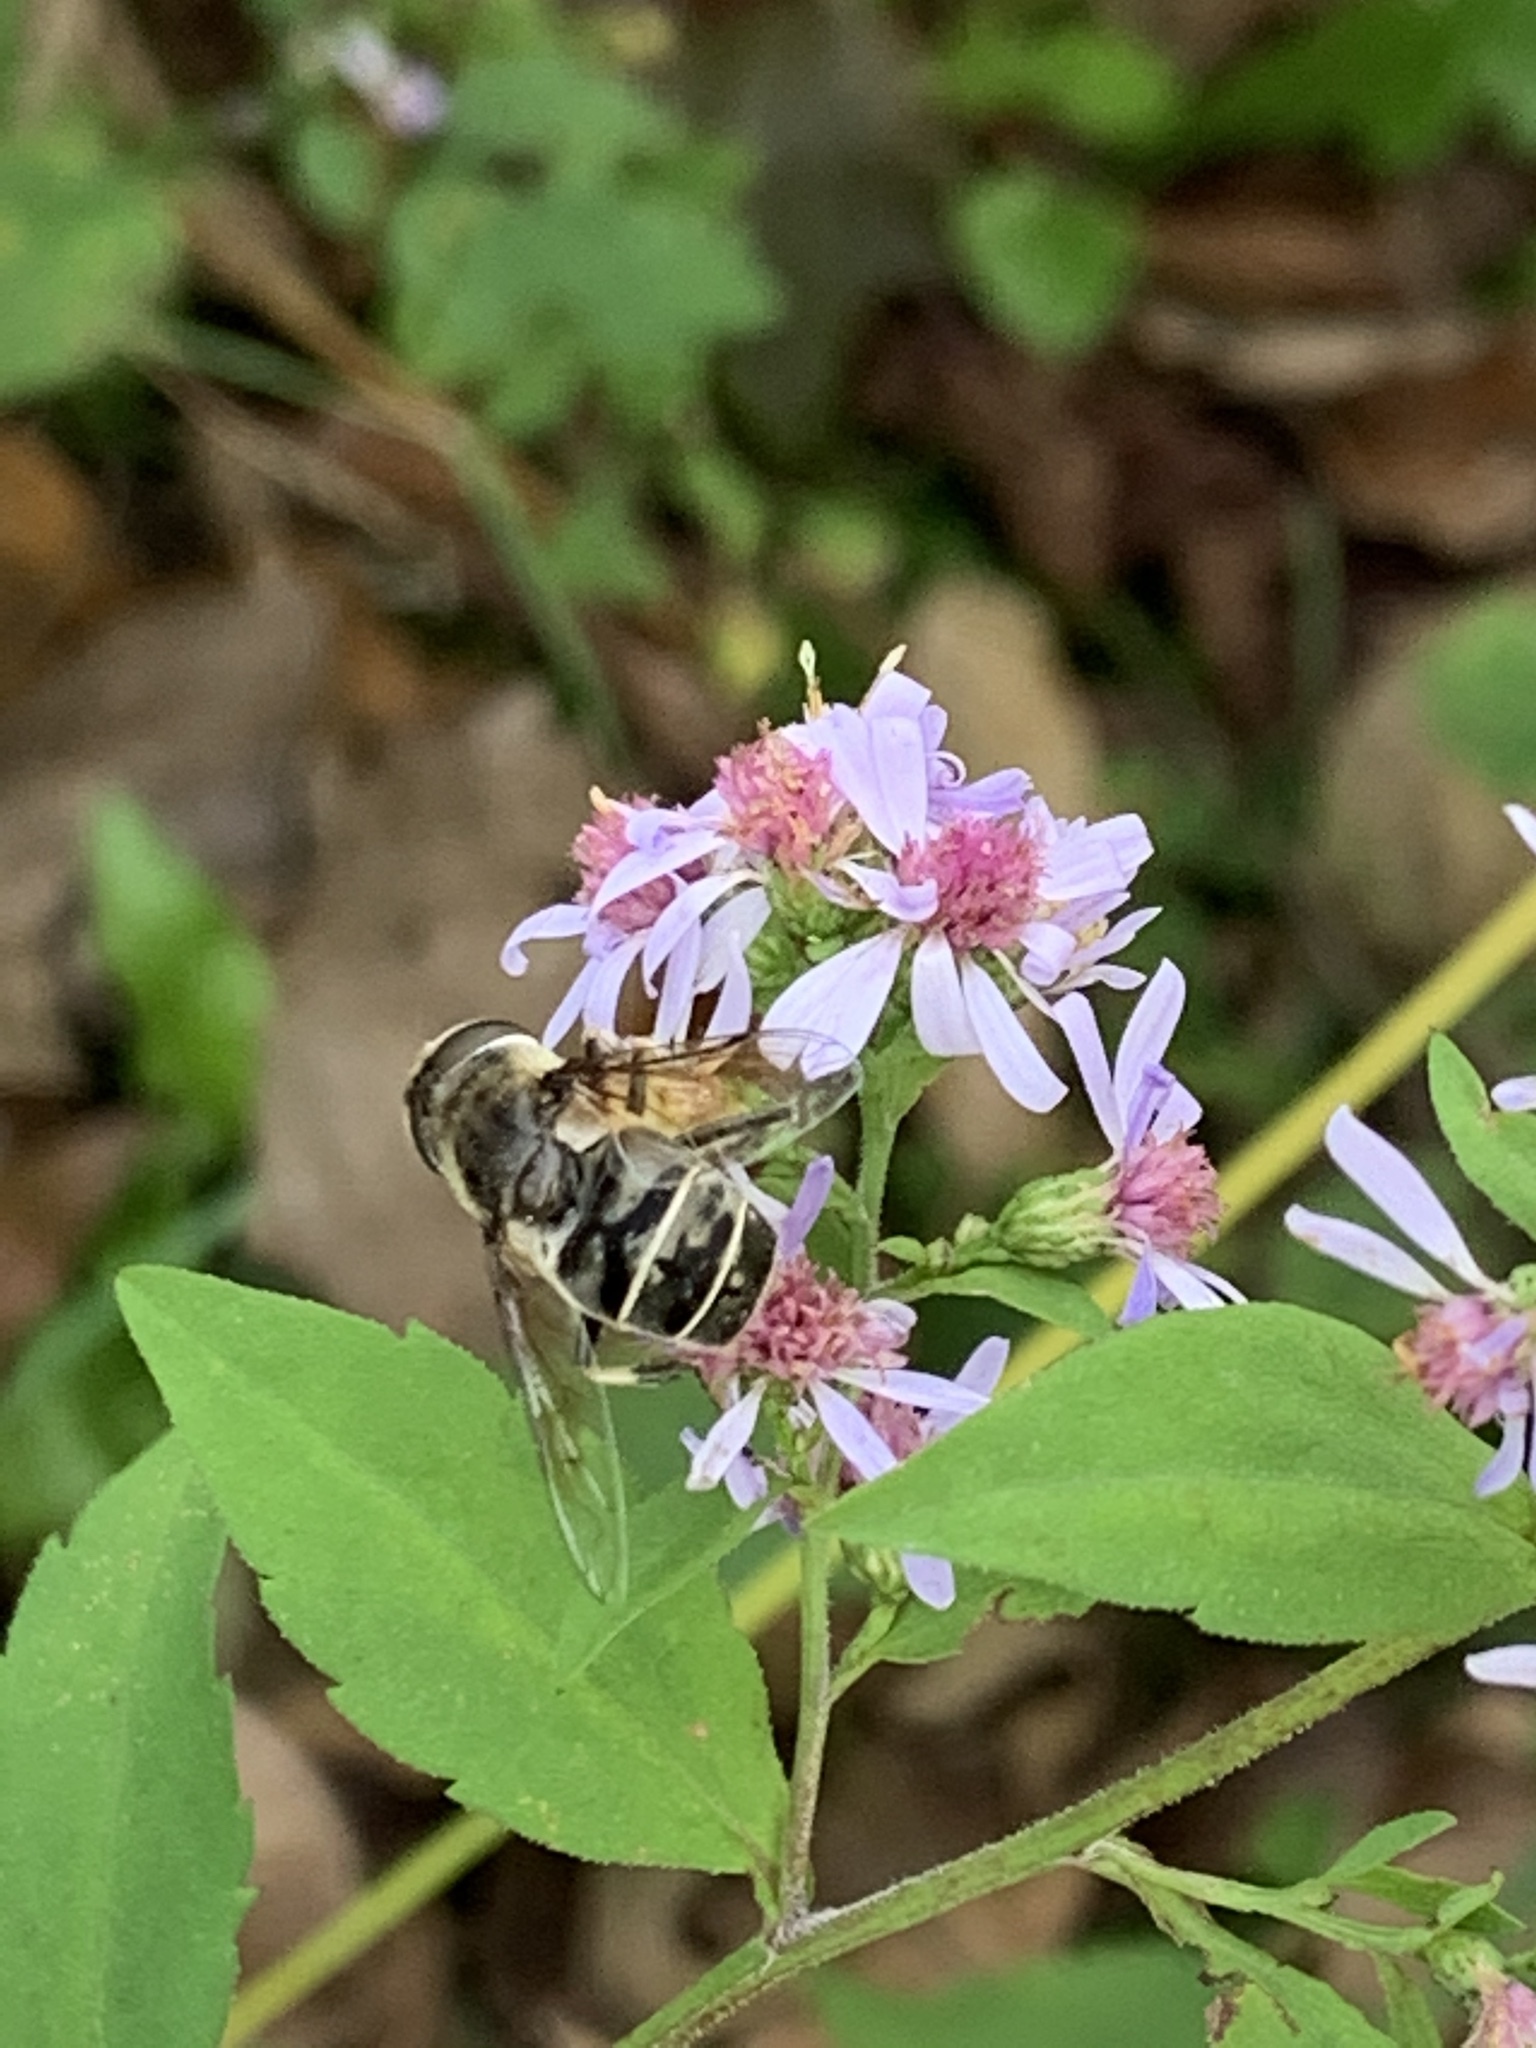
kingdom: Animalia
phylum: Arthropoda
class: Insecta
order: Diptera
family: Syrphidae
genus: Eristalis
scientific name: Eristalis dimidiata
